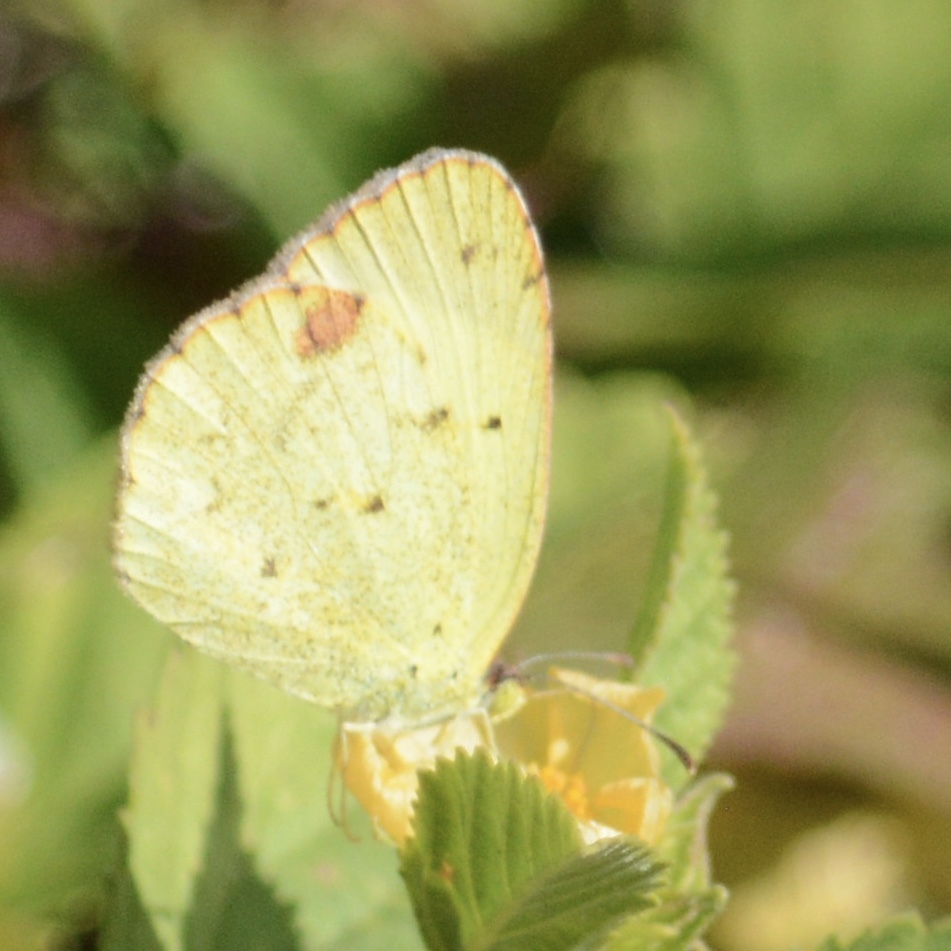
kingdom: Animalia
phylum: Arthropoda
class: Insecta
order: Lepidoptera
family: Pieridae
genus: Pyrisitia
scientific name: Pyrisitia lisa
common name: Little yellow
